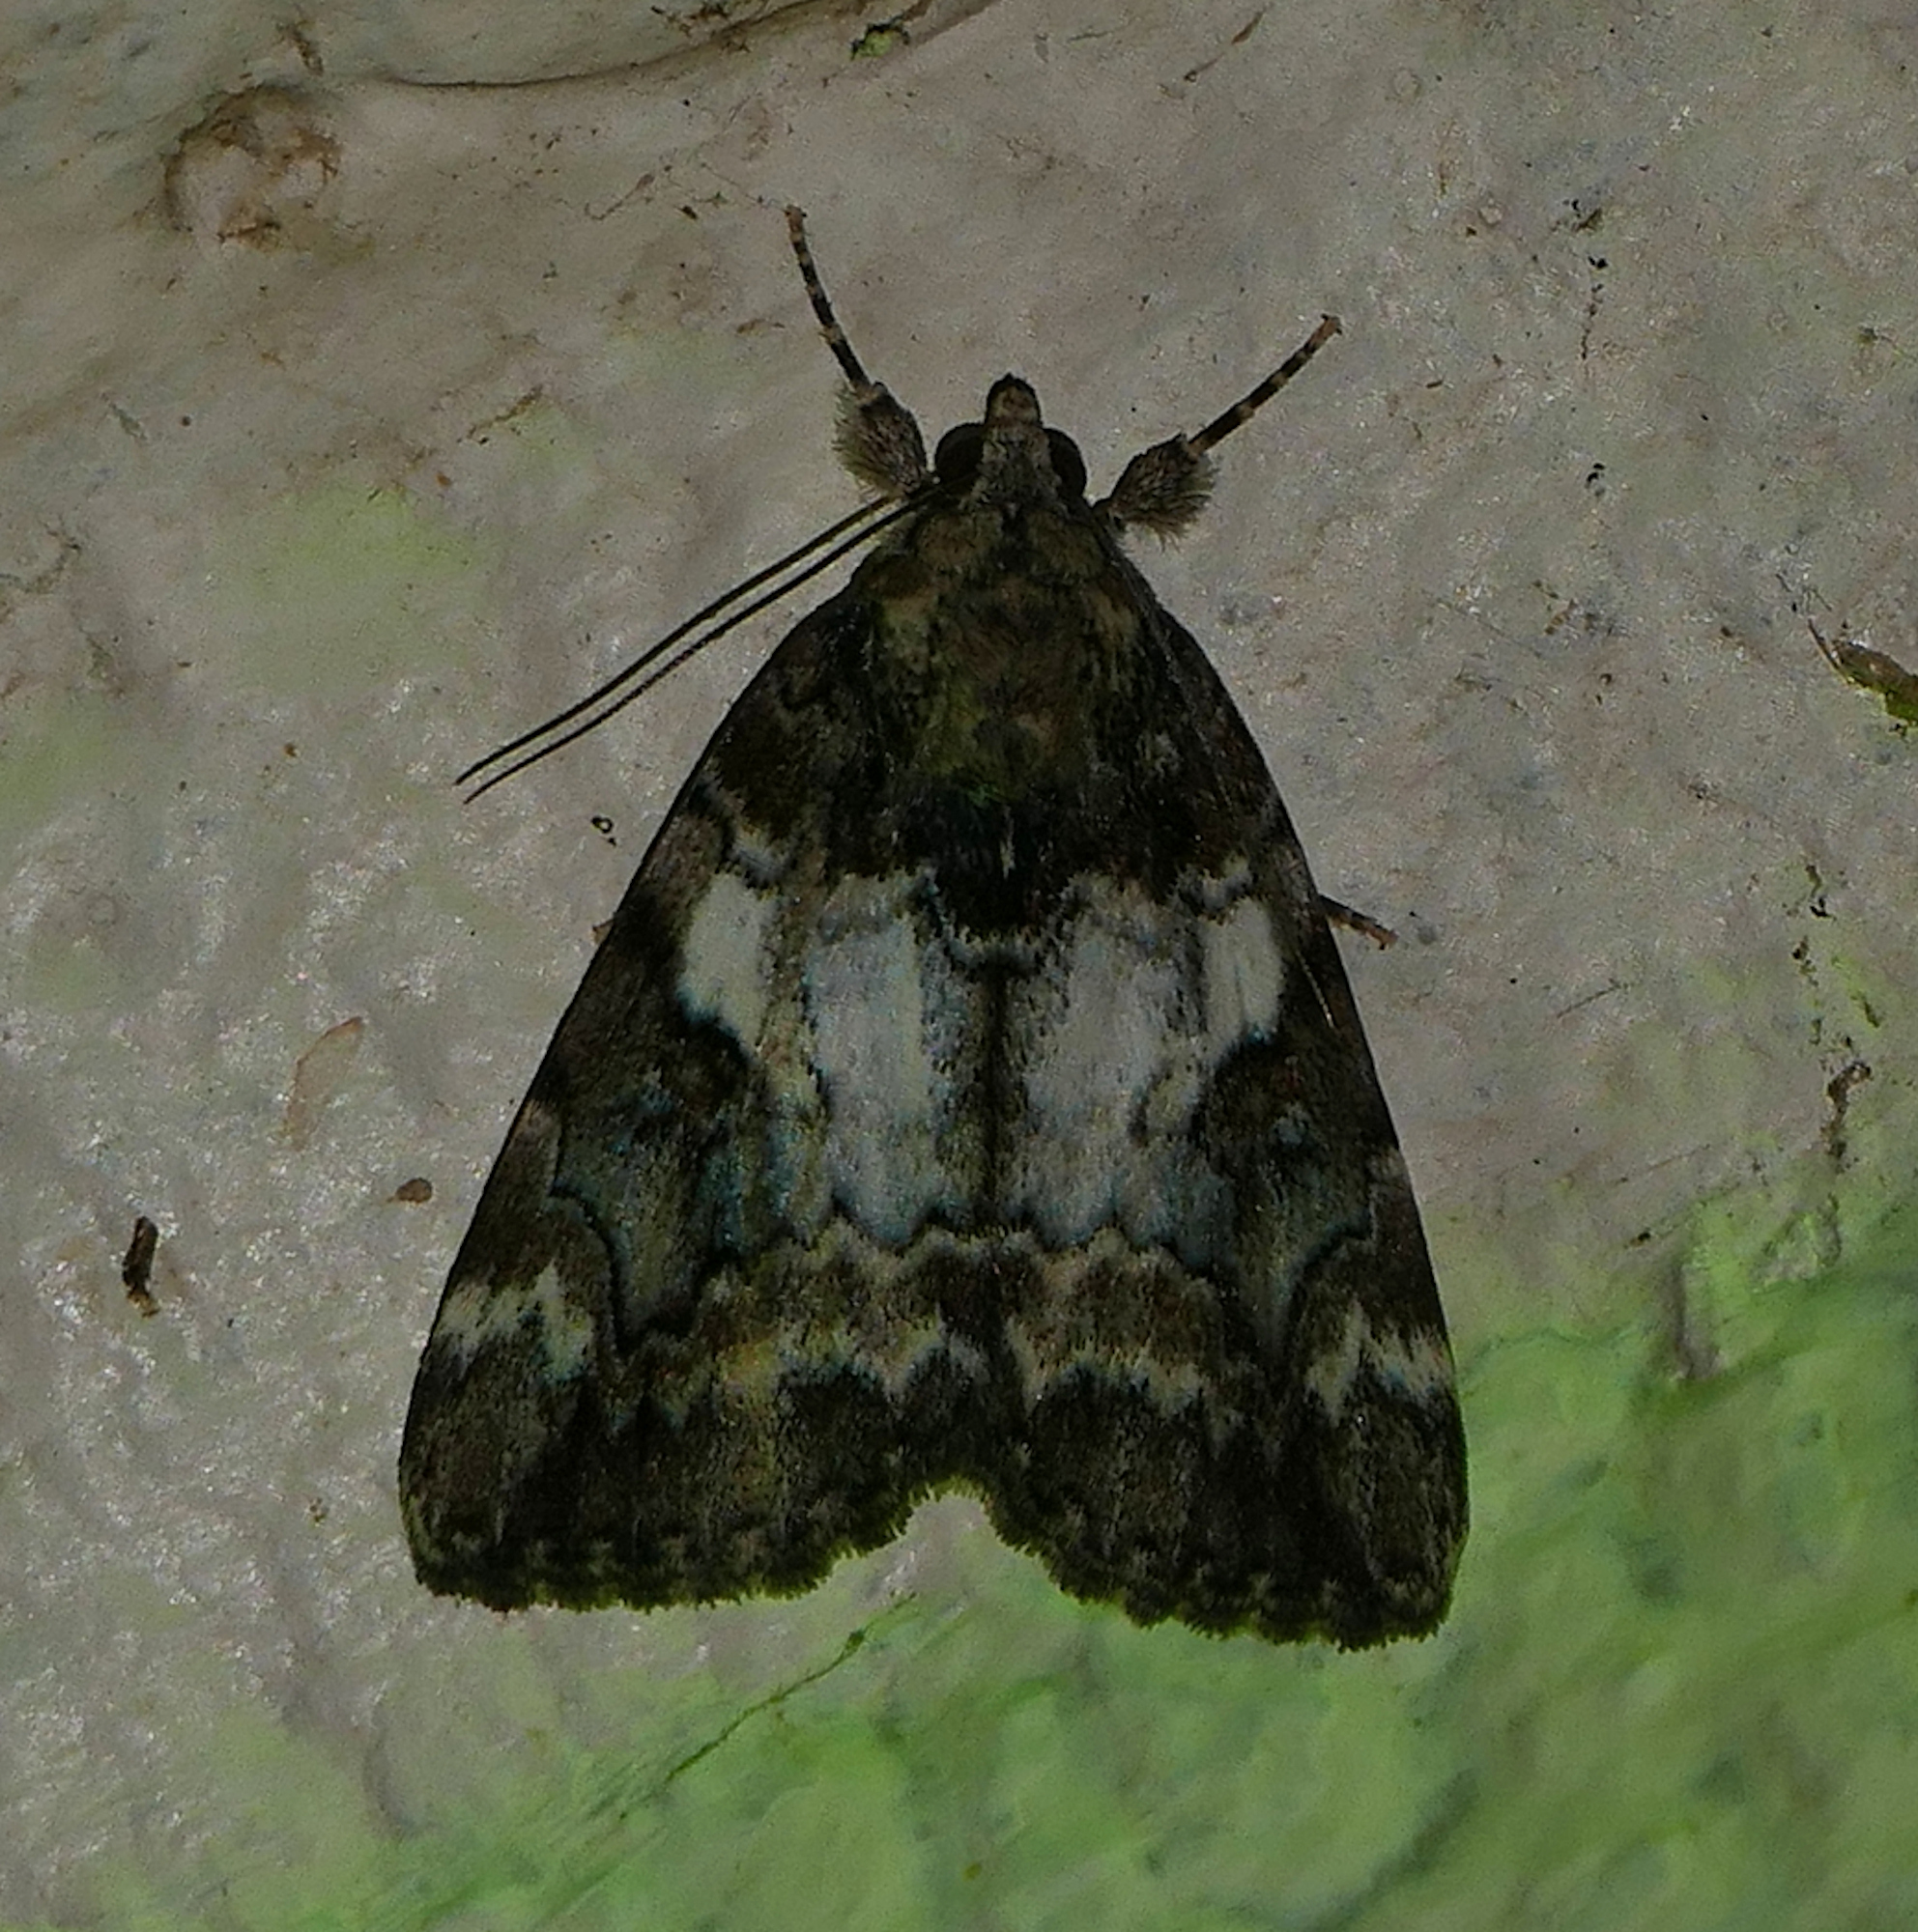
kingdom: Animalia
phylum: Arthropoda
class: Insecta
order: Lepidoptera
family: Erebidae
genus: Catocala
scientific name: Catocala micronympha
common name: Little nymph underwing
